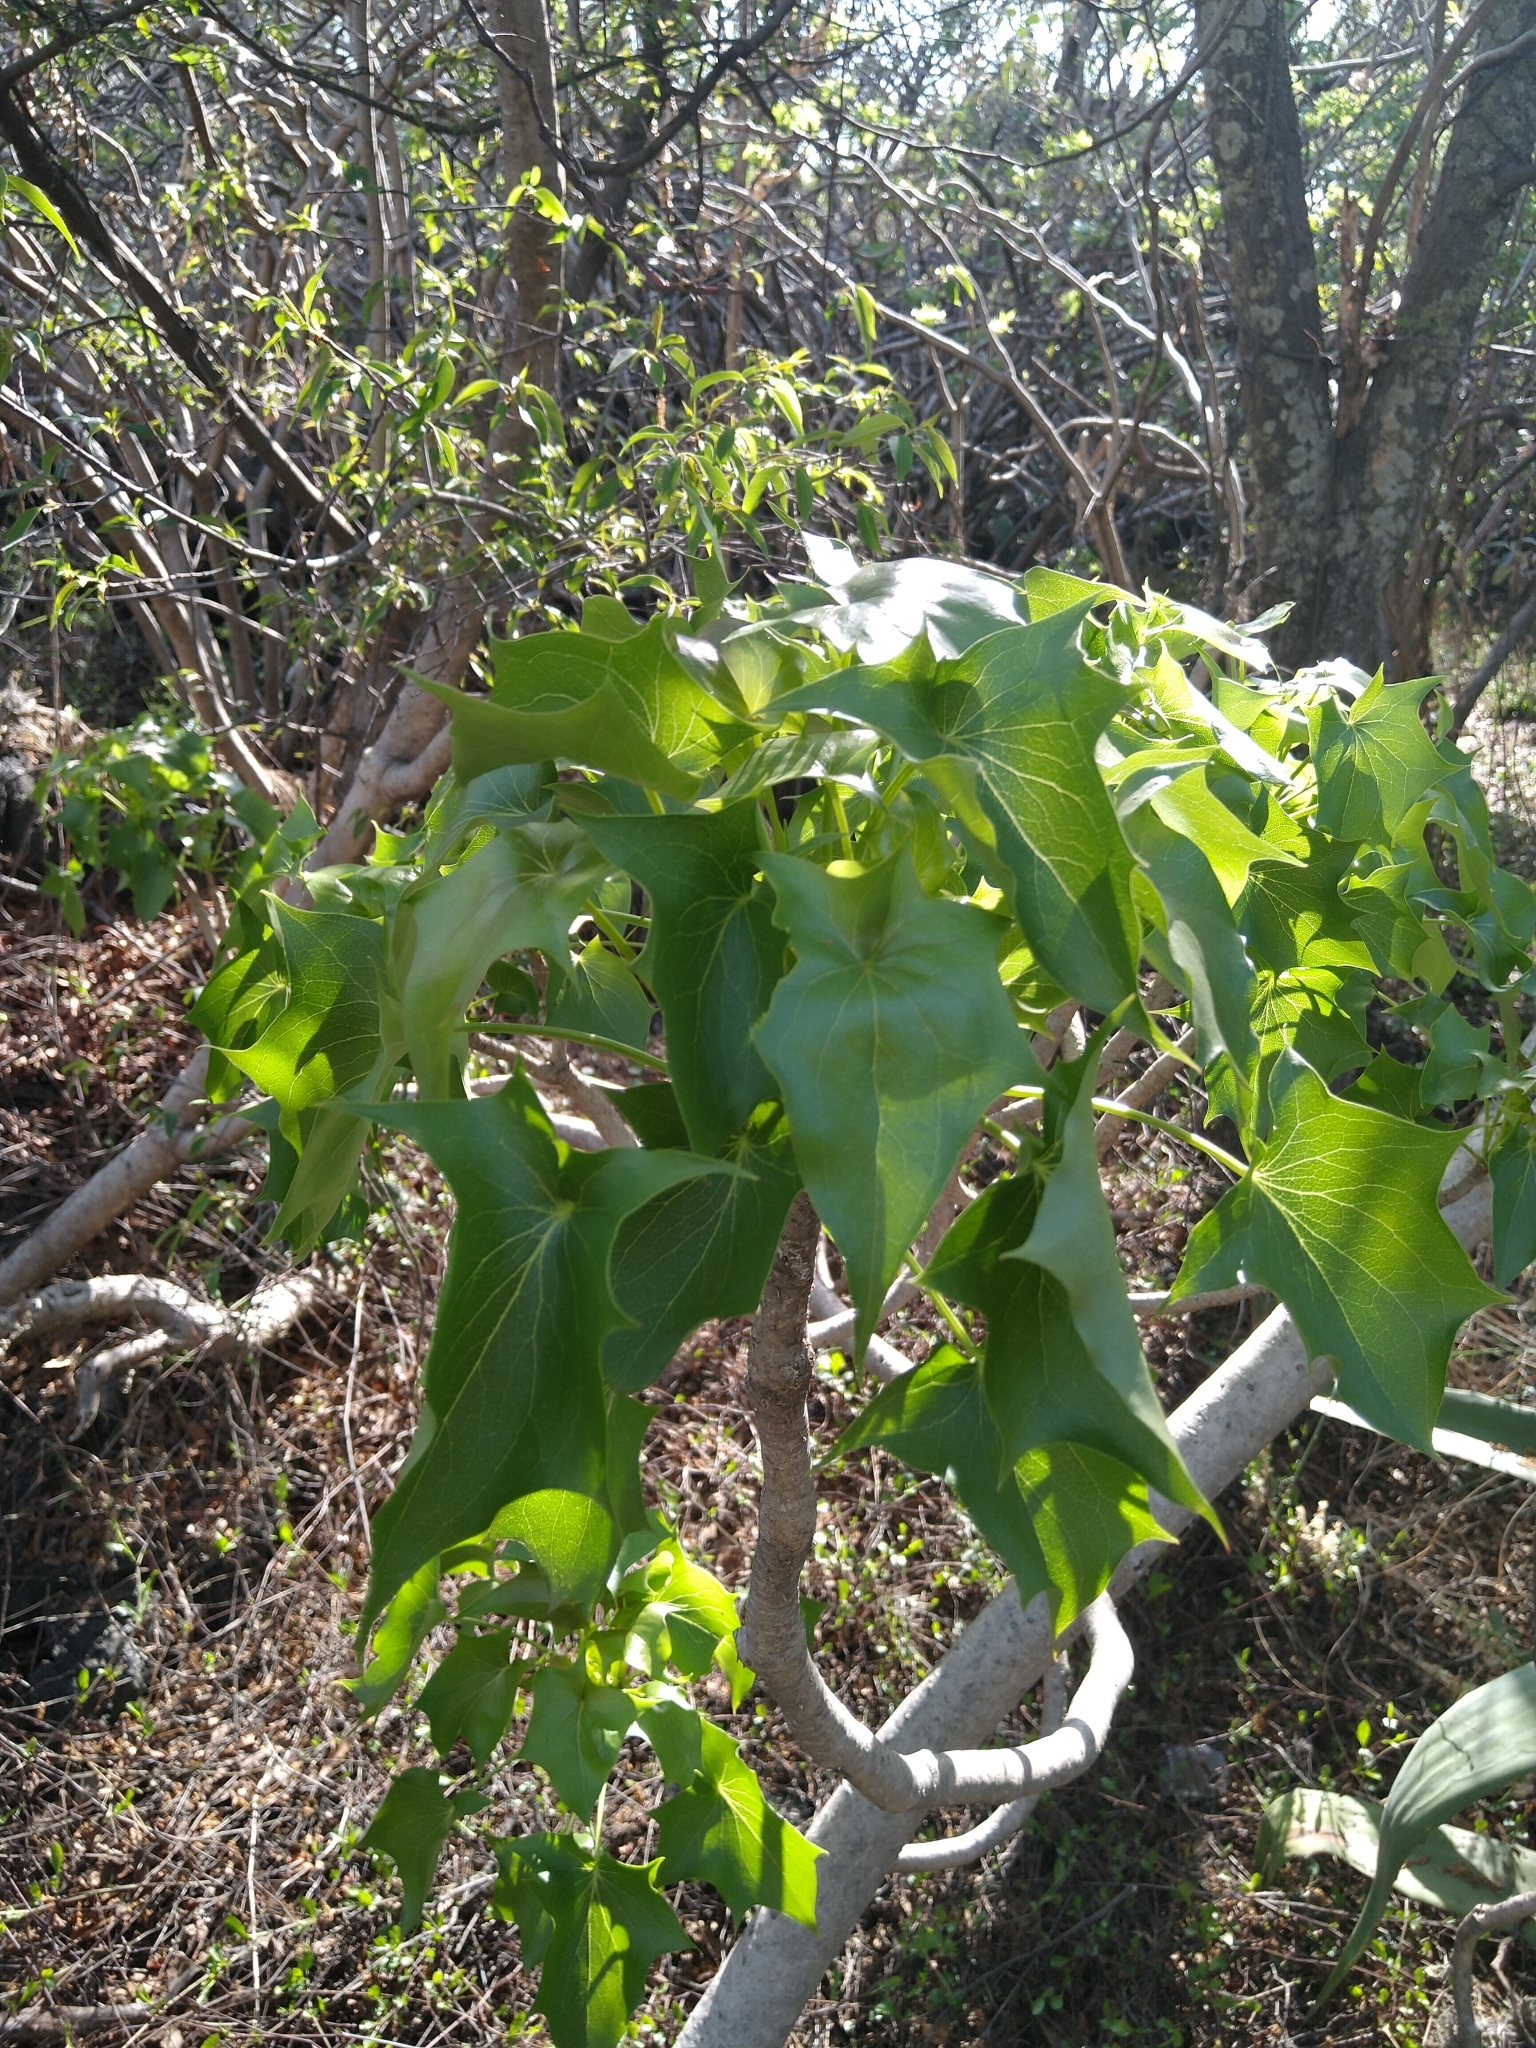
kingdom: Plantae
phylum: Tracheophyta
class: Magnoliopsida
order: Asterales
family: Asteraceae
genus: Pittocaulon
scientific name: Pittocaulon praecox
